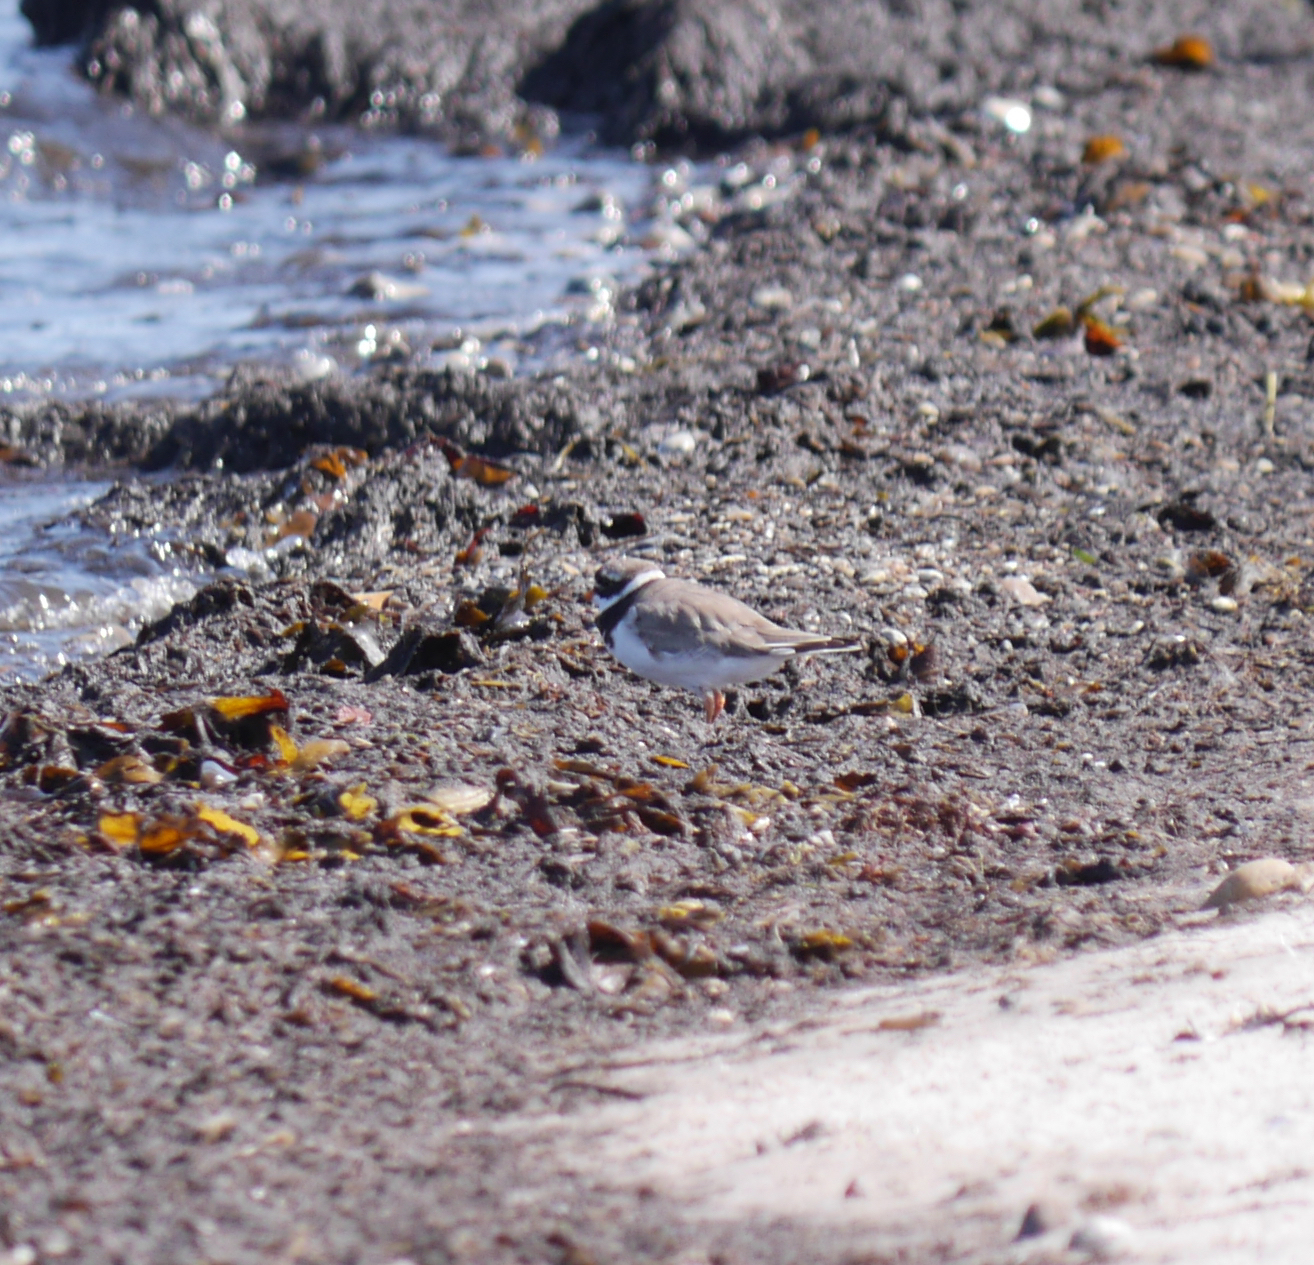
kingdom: Animalia
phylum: Chordata
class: Aves
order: Charadriiformes
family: Charadriidae
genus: Charadrius
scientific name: Charadrius hiaticula
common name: Common ringed plover
